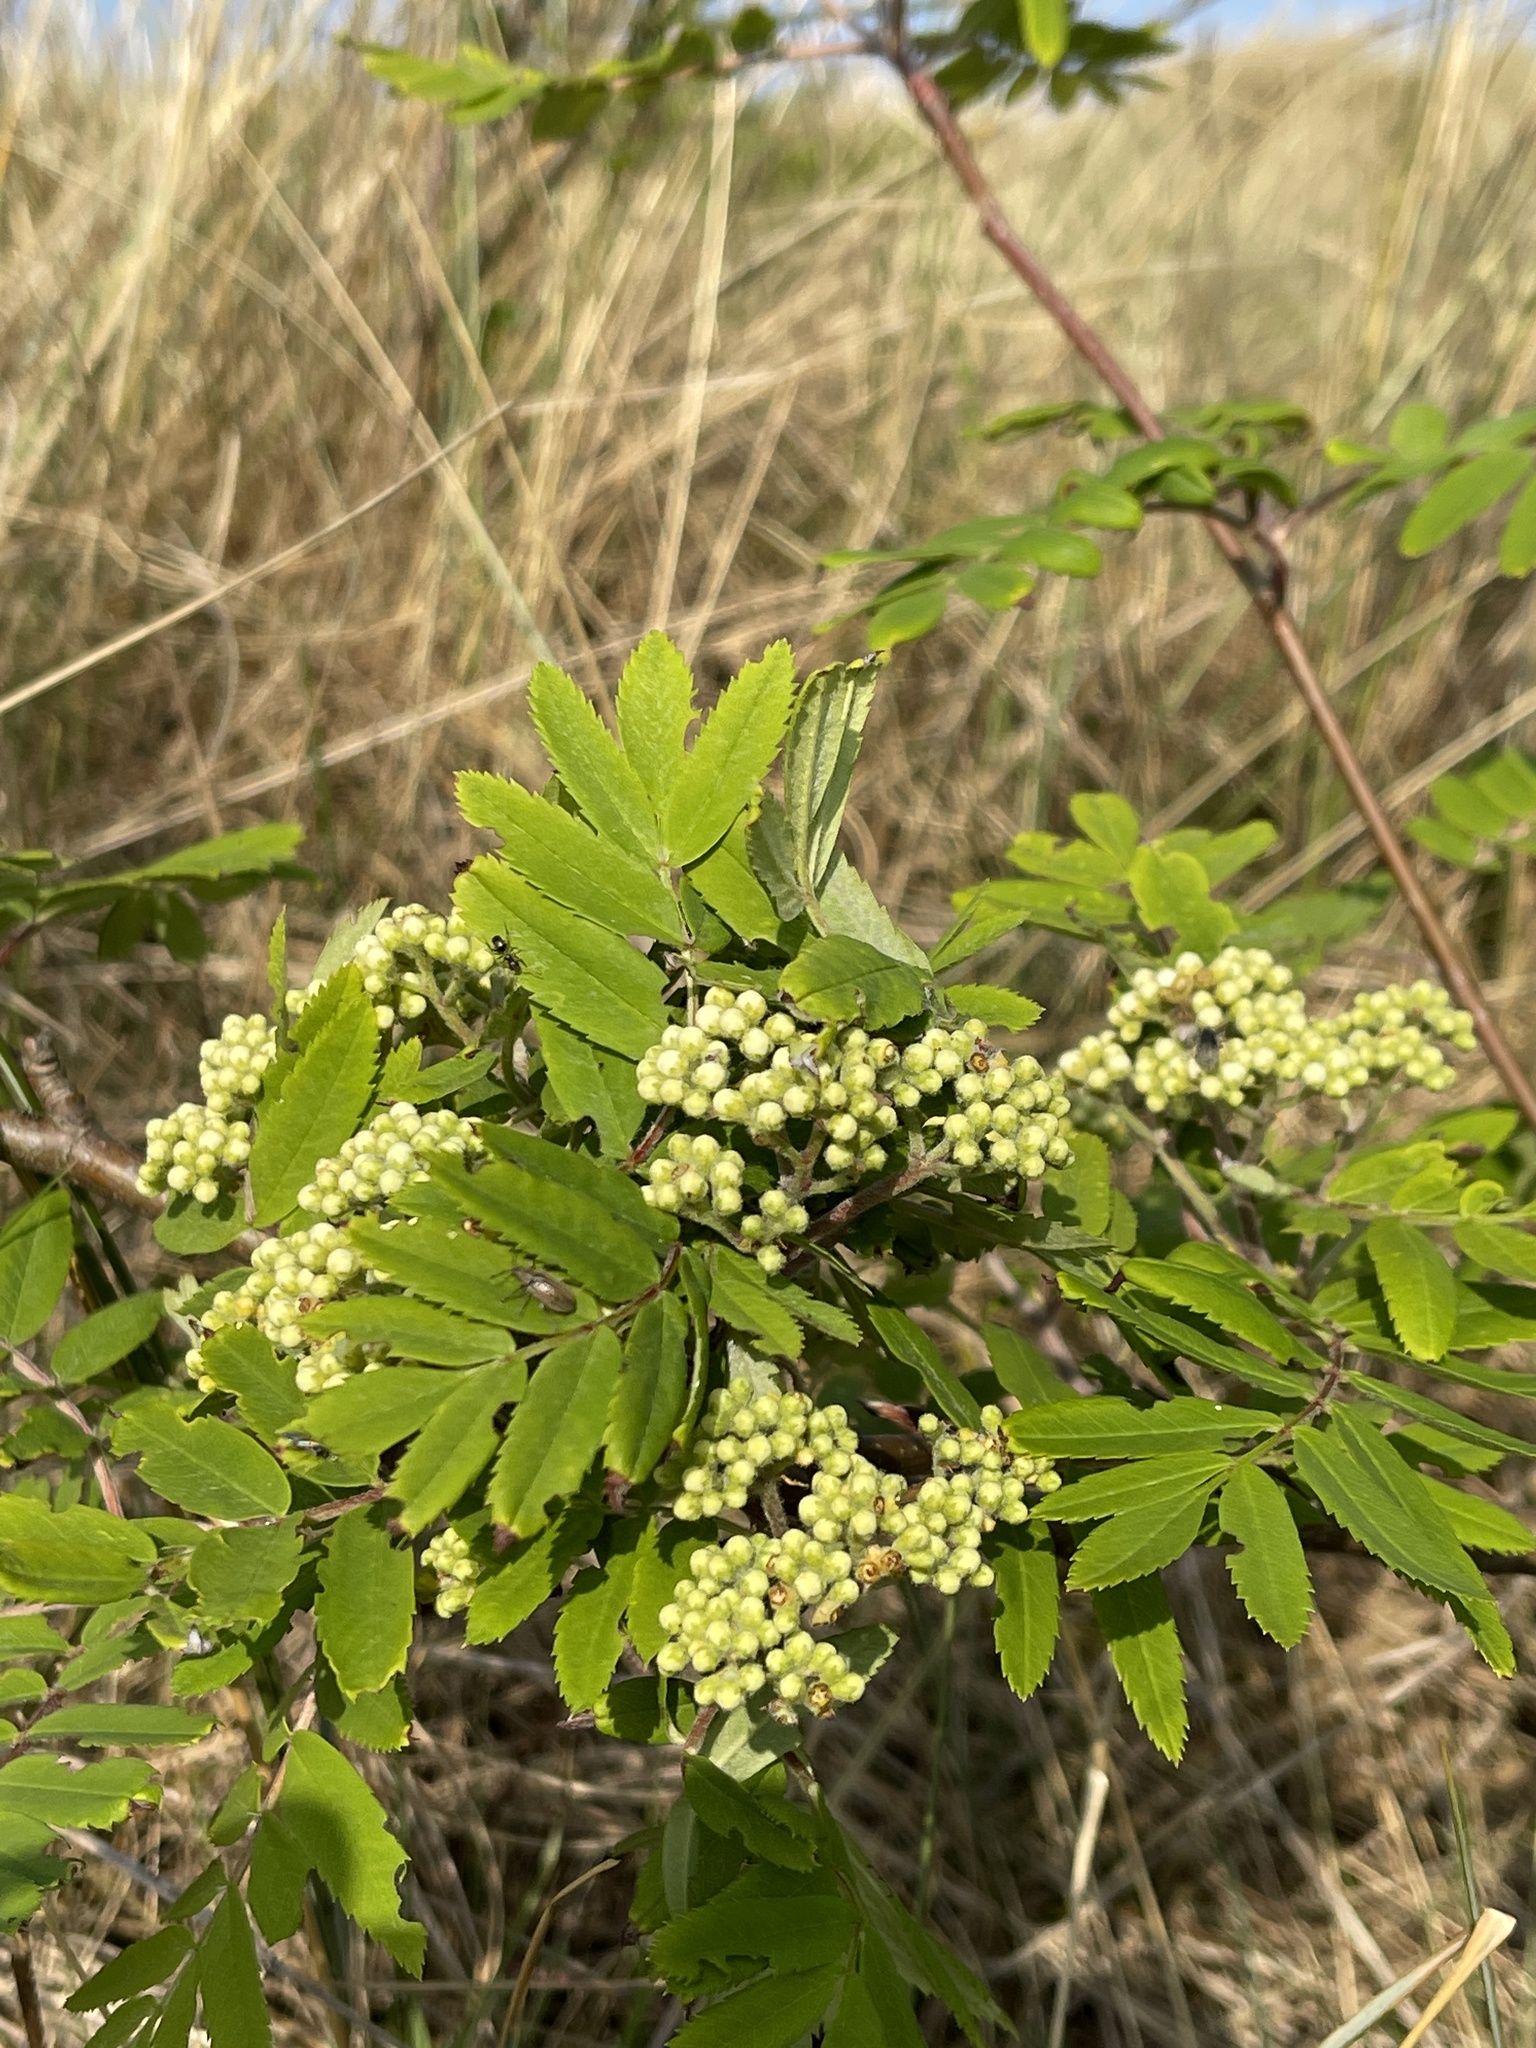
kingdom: Plantae
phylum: Tracheophyta
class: Magnoliopsida
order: Rosales
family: Rosaceae
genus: Sorbus
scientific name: Sorbus aucuparia
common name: Rowan
